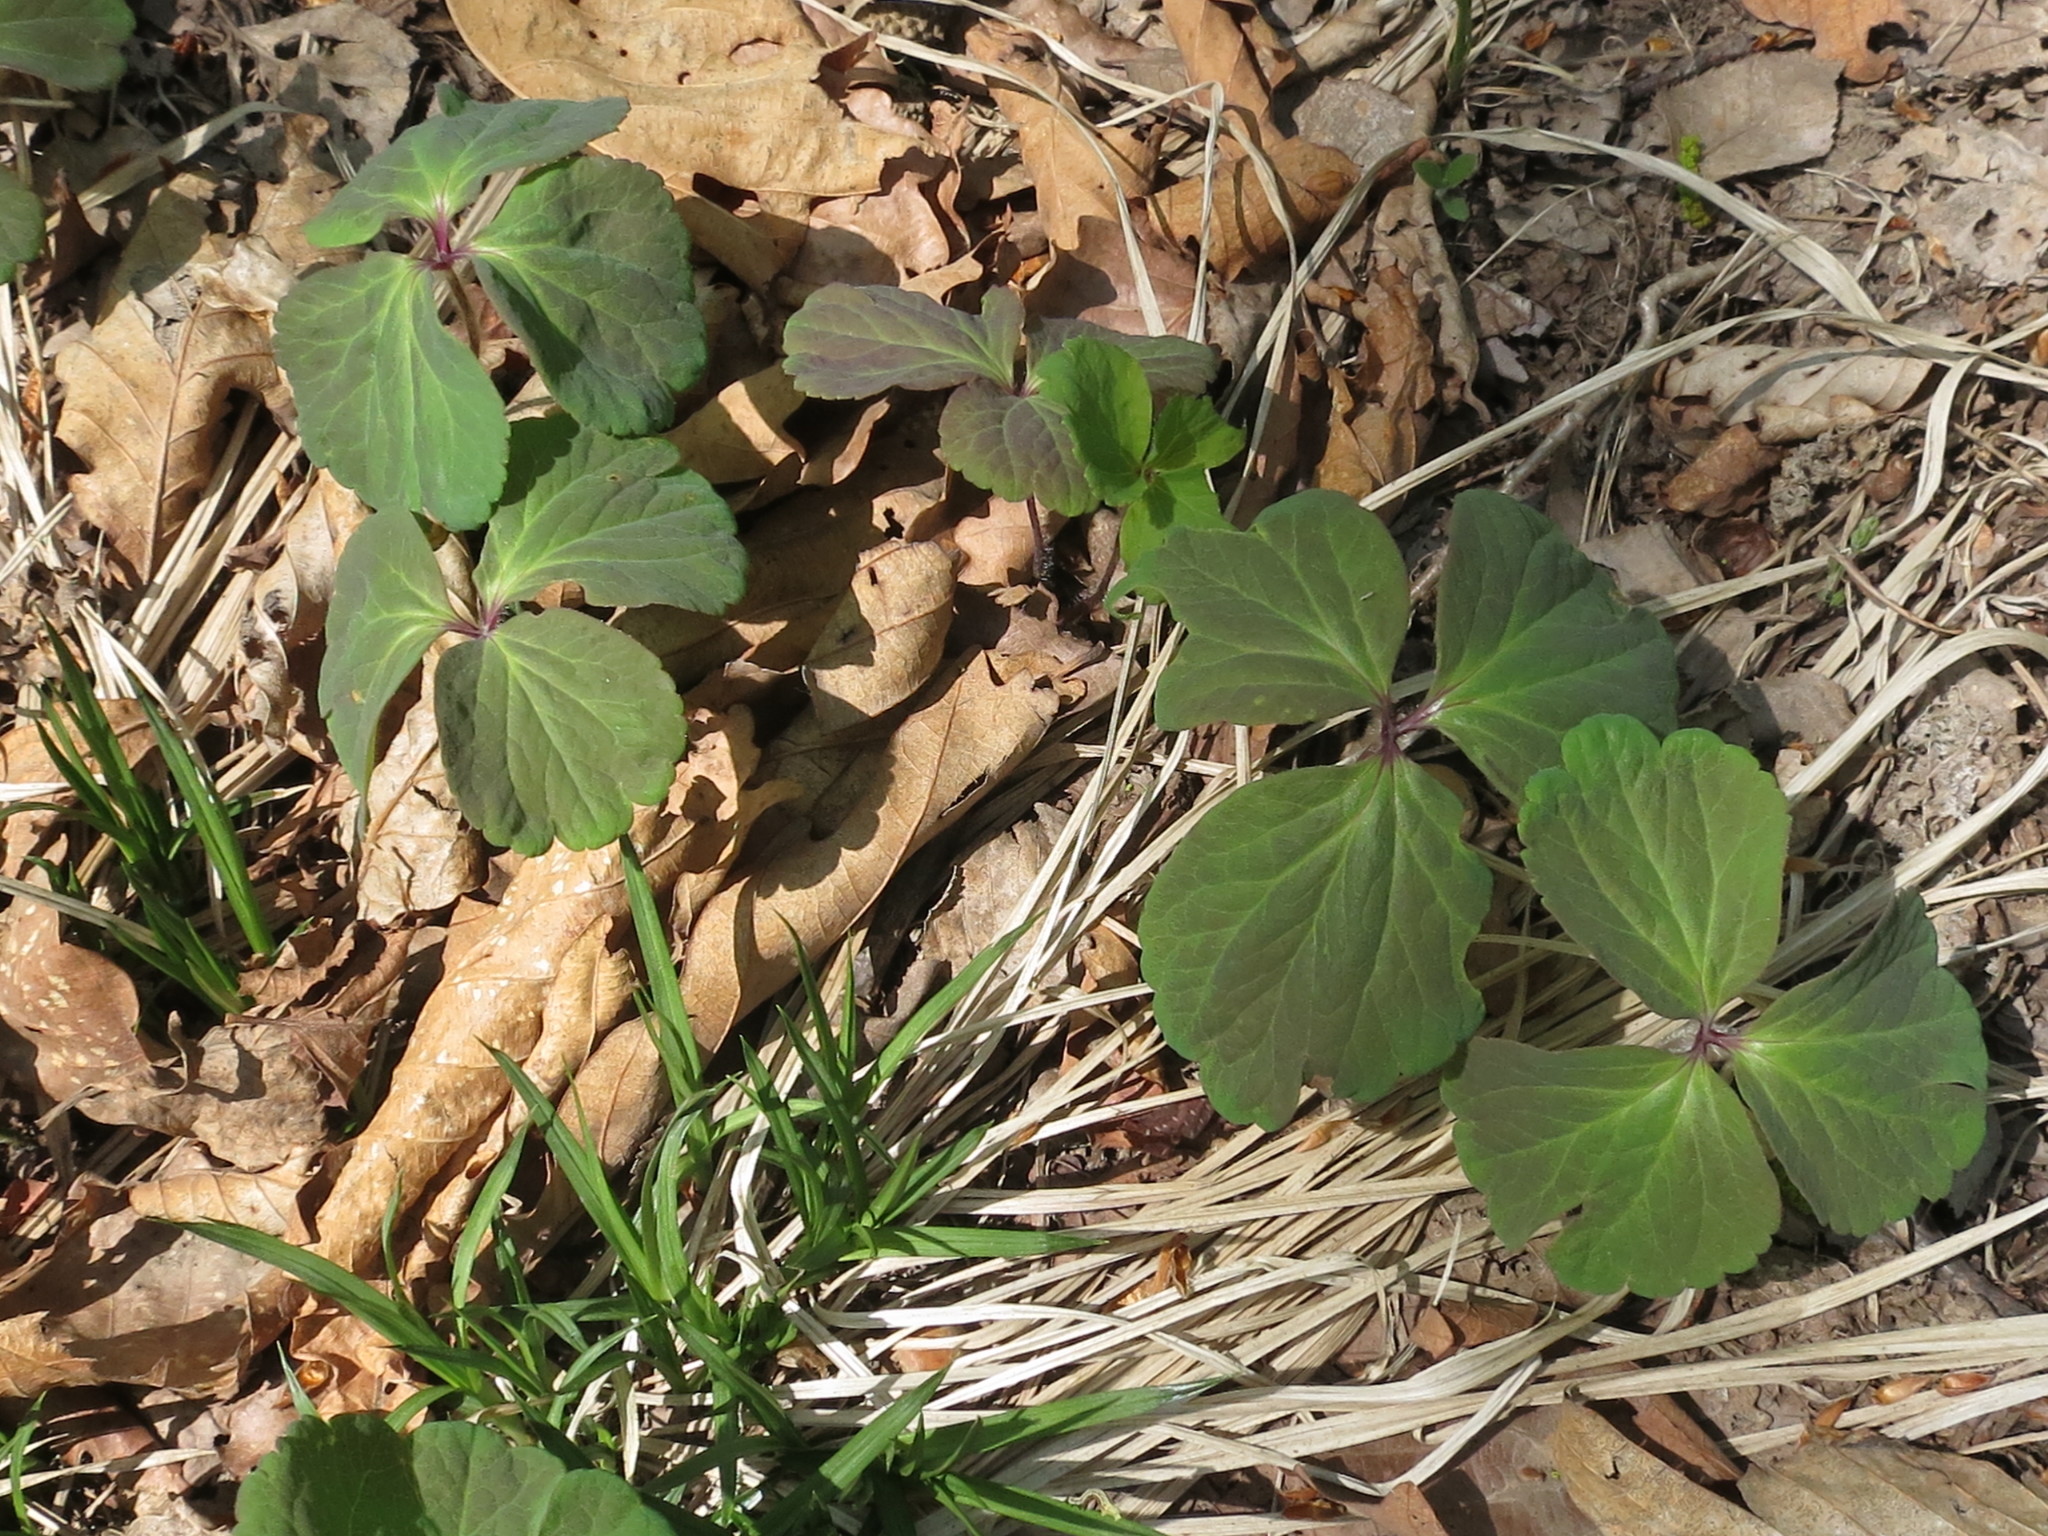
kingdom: Plantae
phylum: Tracheophyta
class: Magnoliopsida
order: Ranunculales
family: Ranunculaceae
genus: Anemone
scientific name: Anemone udensis
